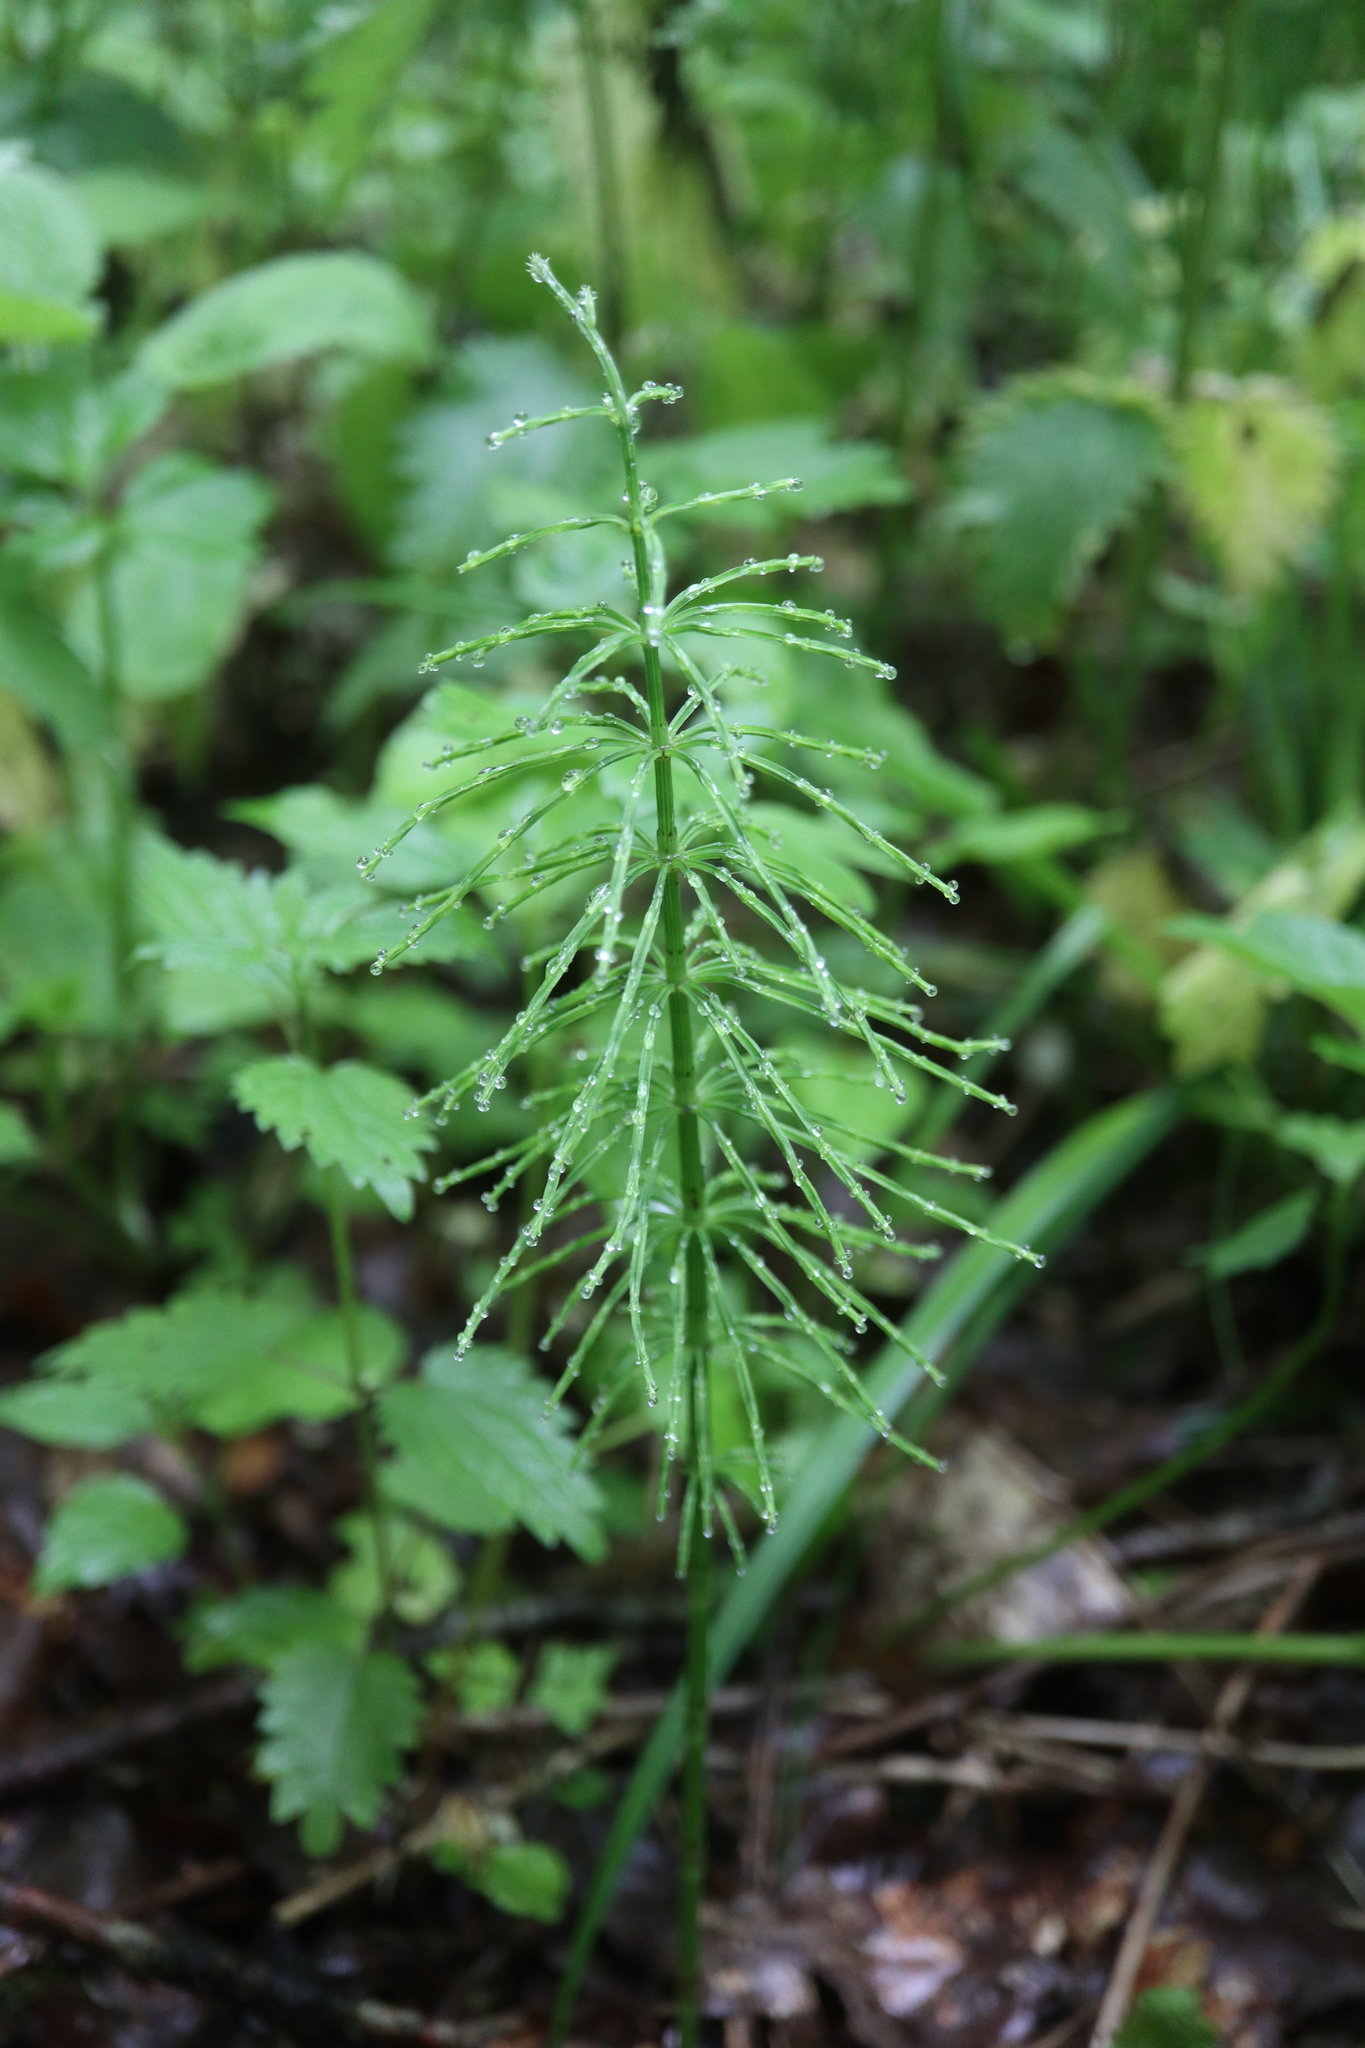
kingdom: Plantae
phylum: Tracheophyta
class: Polypodiopsida
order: Equisetales
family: Equisetaceae
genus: Equisetum
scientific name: Equisetum arvense
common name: Field horsetail
